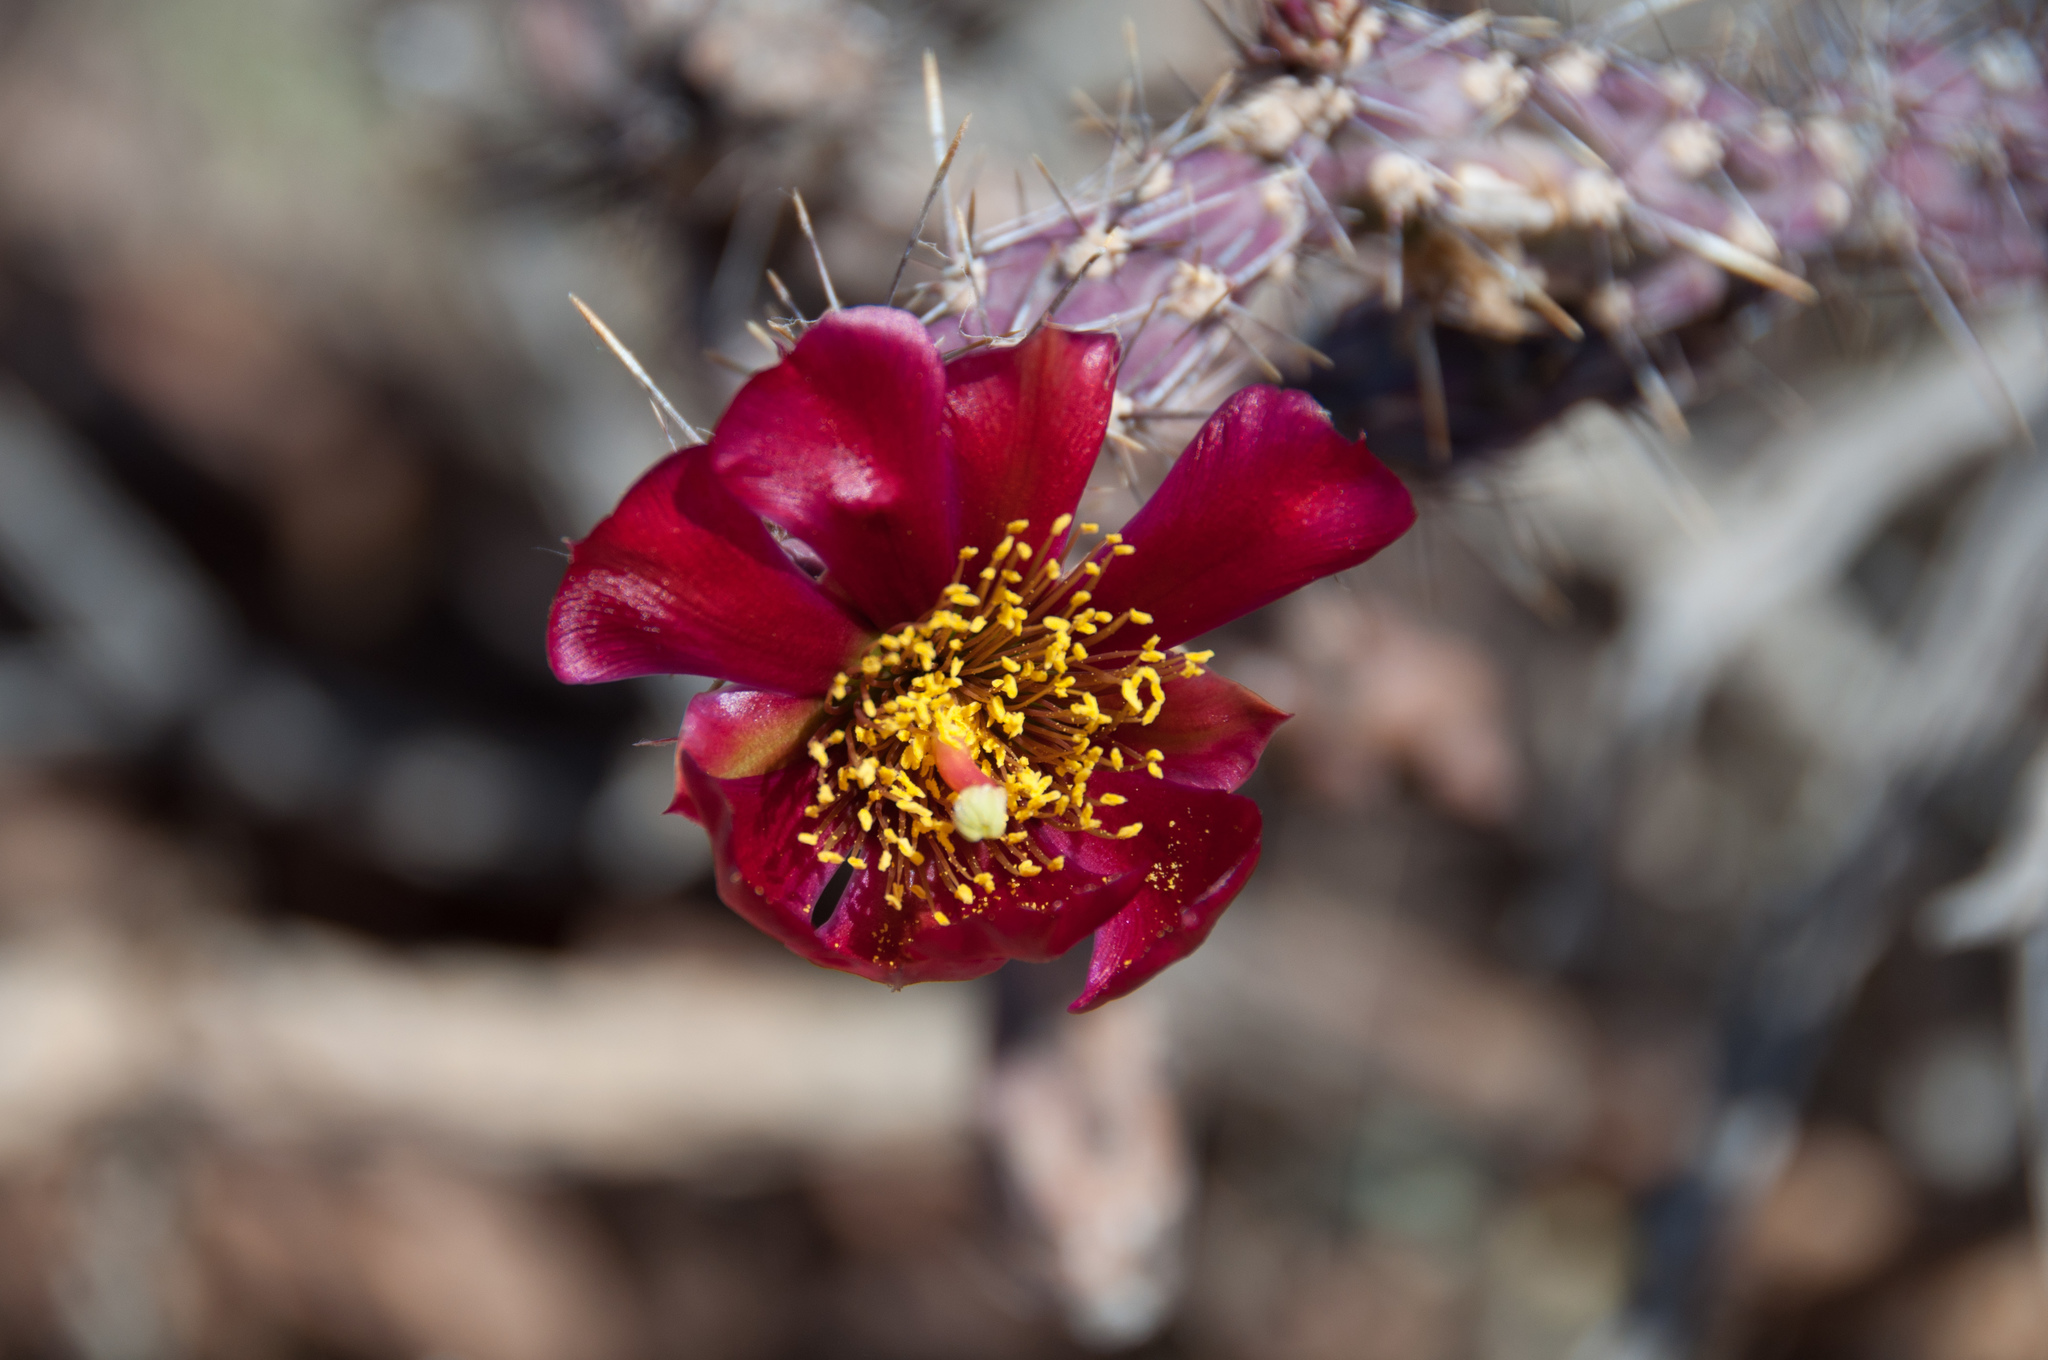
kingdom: Plantae
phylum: Tracheophyta
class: Magnoliopsida
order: Caryophyllales
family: Cactaceae
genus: Cylindropuntia
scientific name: Cylindropuntia thurberi
